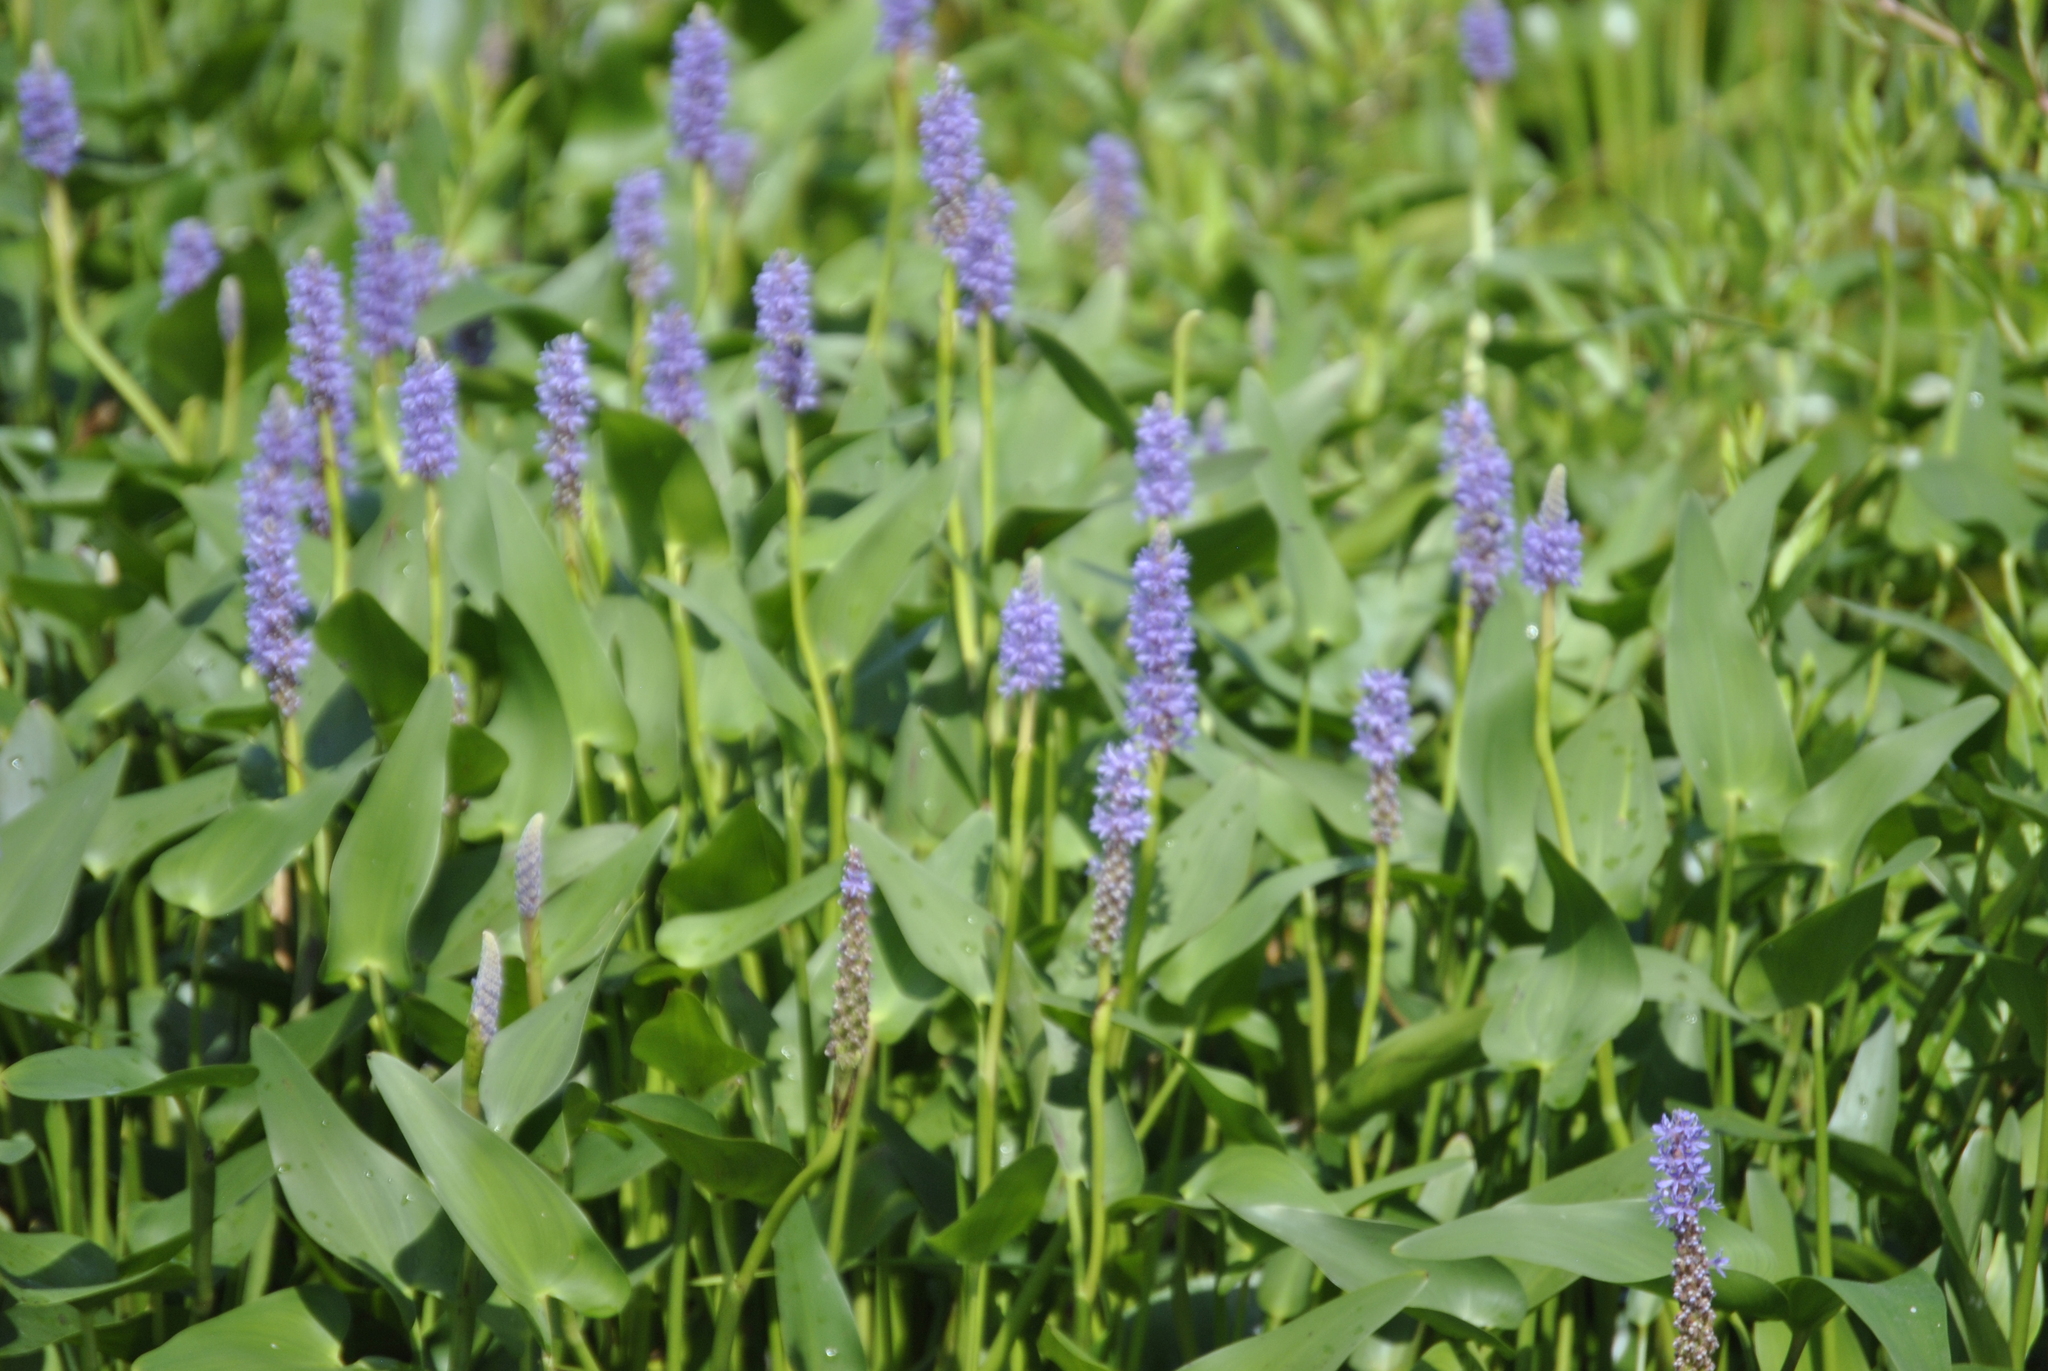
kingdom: Plantae
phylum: Tracheophyta
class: Liliopsida
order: Commelinales
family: Pontederiaceae
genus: Pontederia
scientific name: Pontederia cordata
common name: Pickerelweed
